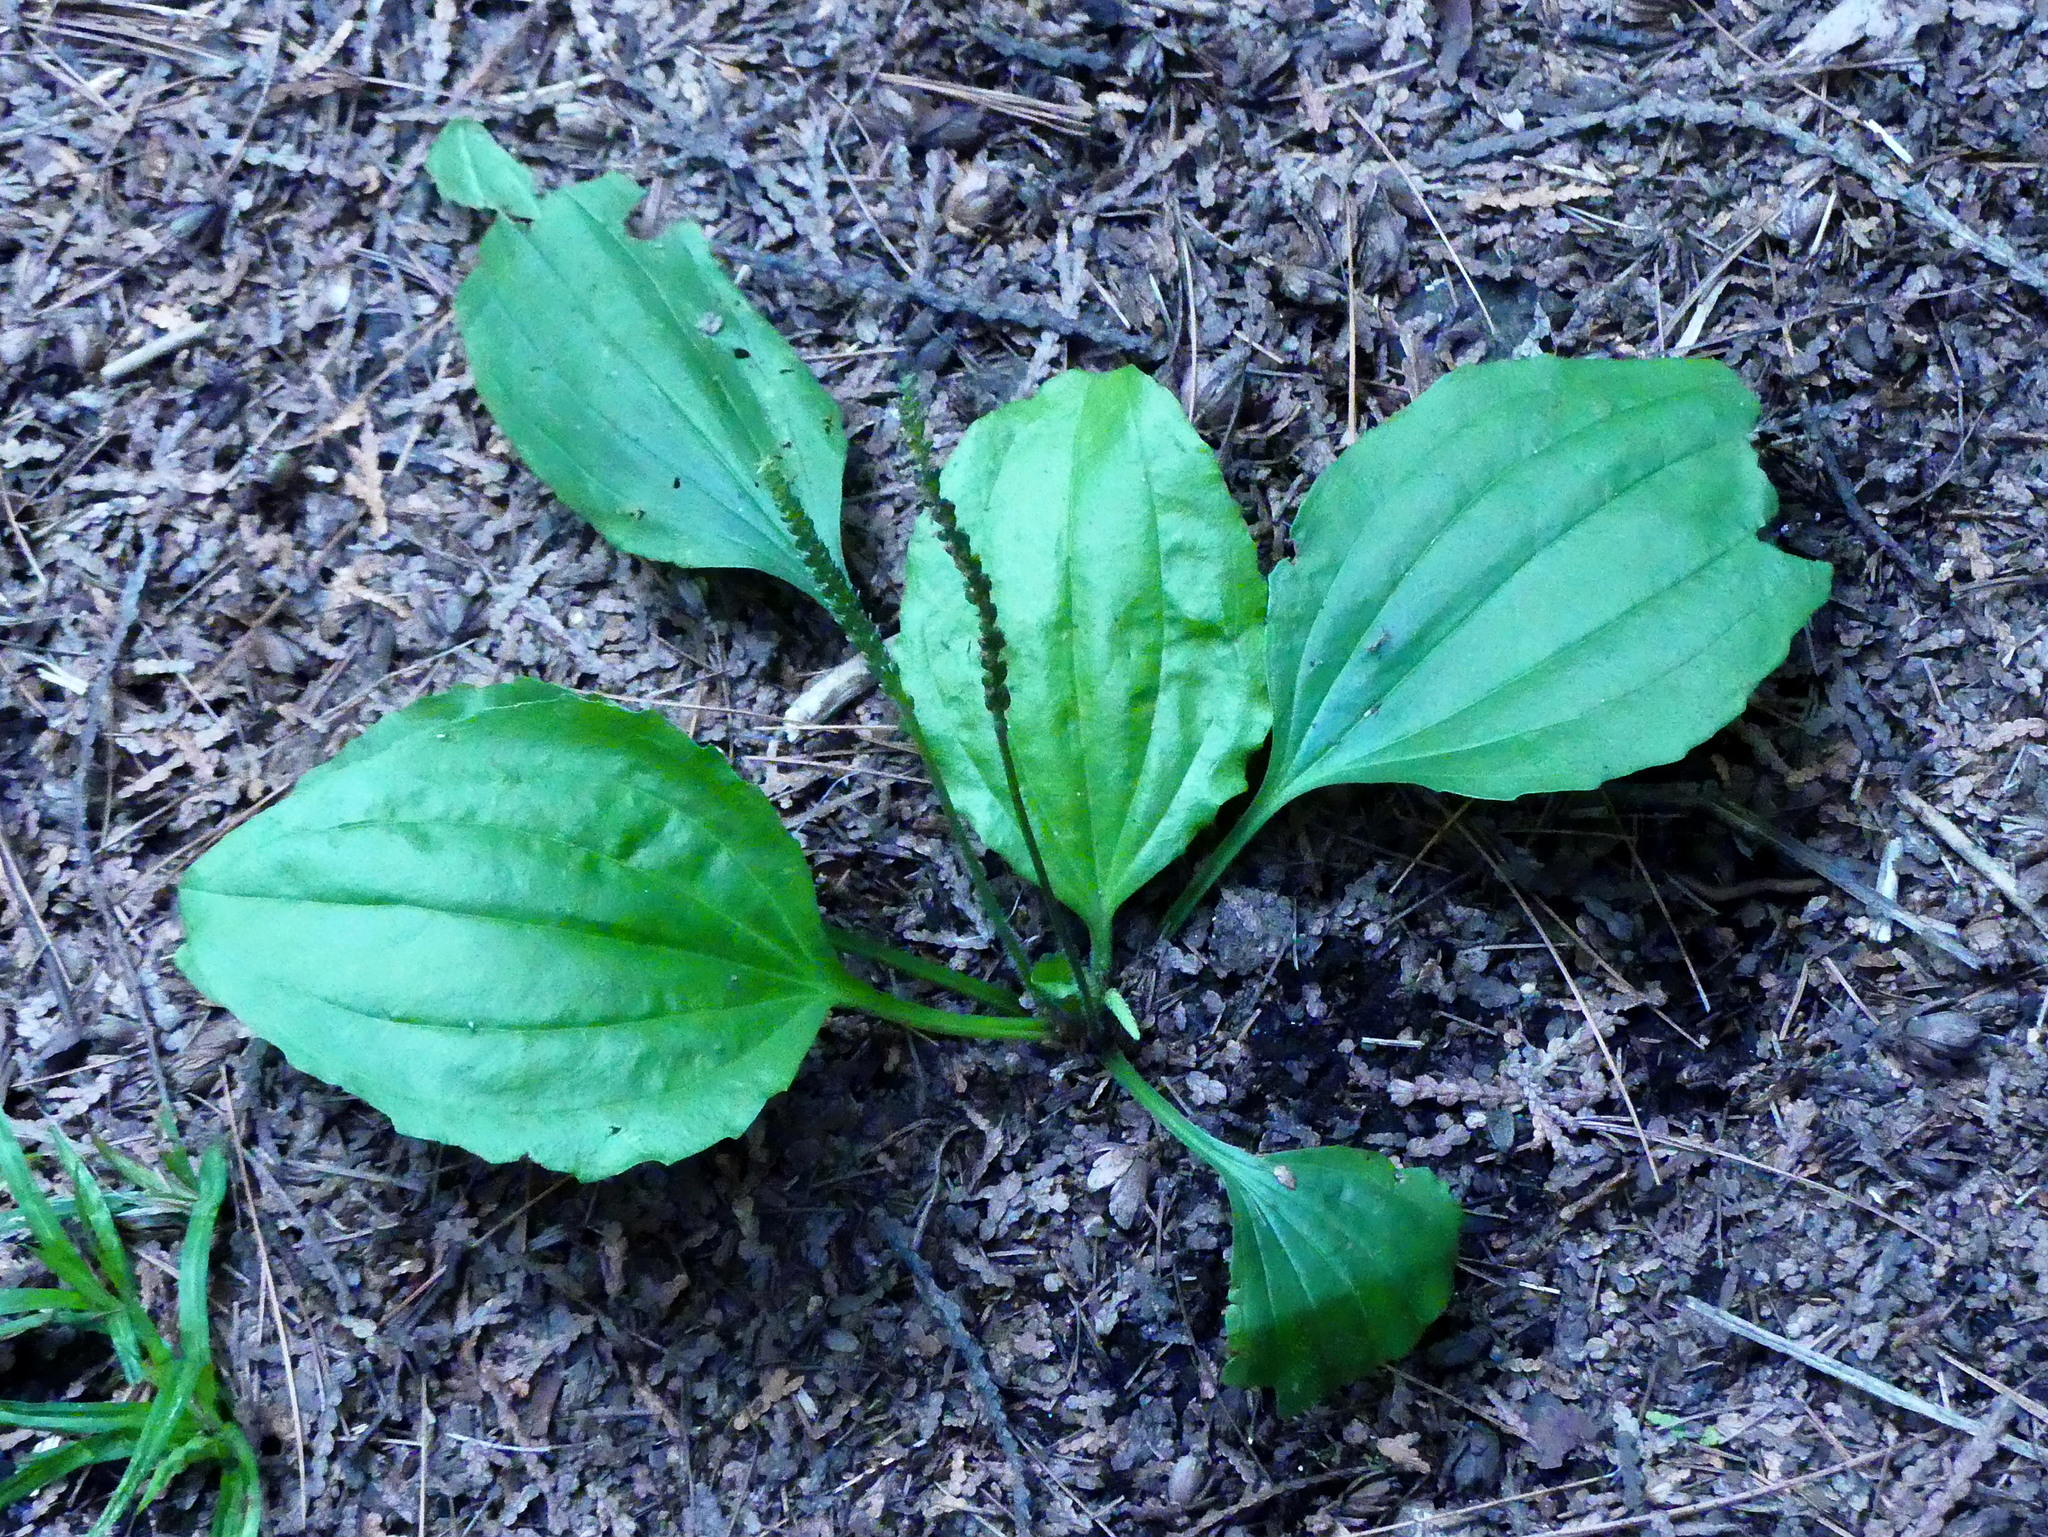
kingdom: Plantae
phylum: Tracheophyta
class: Magnoliopsida
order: Lamiales
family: Plantaginaceae
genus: Plantago
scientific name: Plantago major
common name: Common plantain
